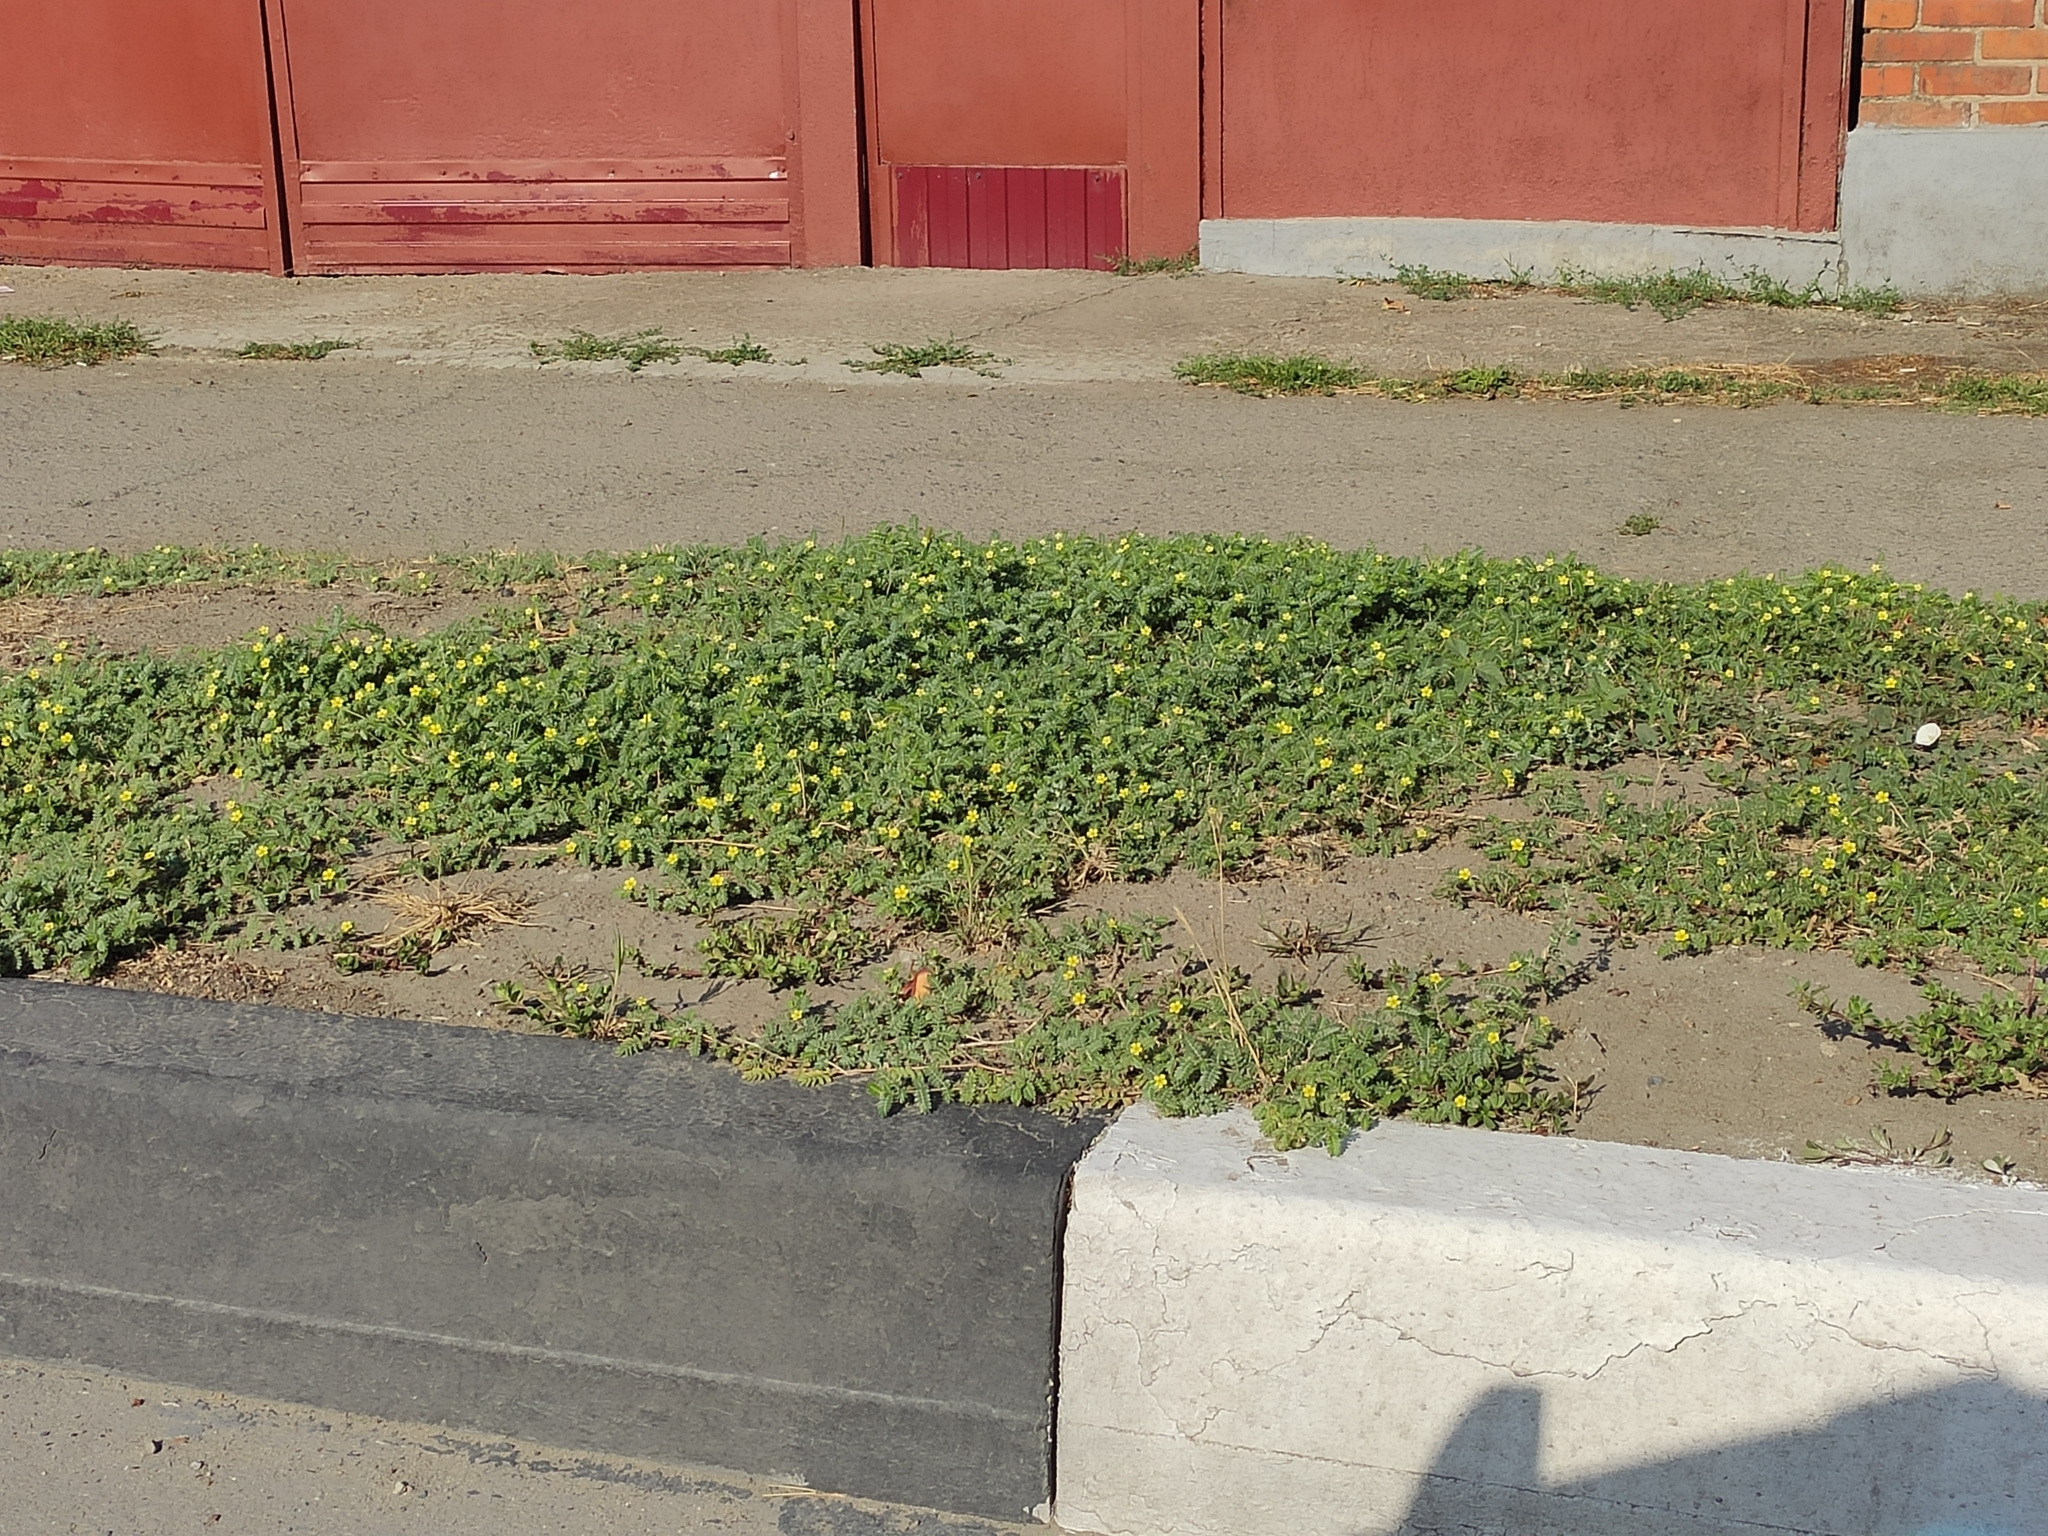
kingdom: Plantae
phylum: Tracheophyta
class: Magnoliopsida
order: Zygophyllales
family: Zygophyllaceae
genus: Tribulus
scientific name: Tribulus terrestris
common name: Puncturevine
